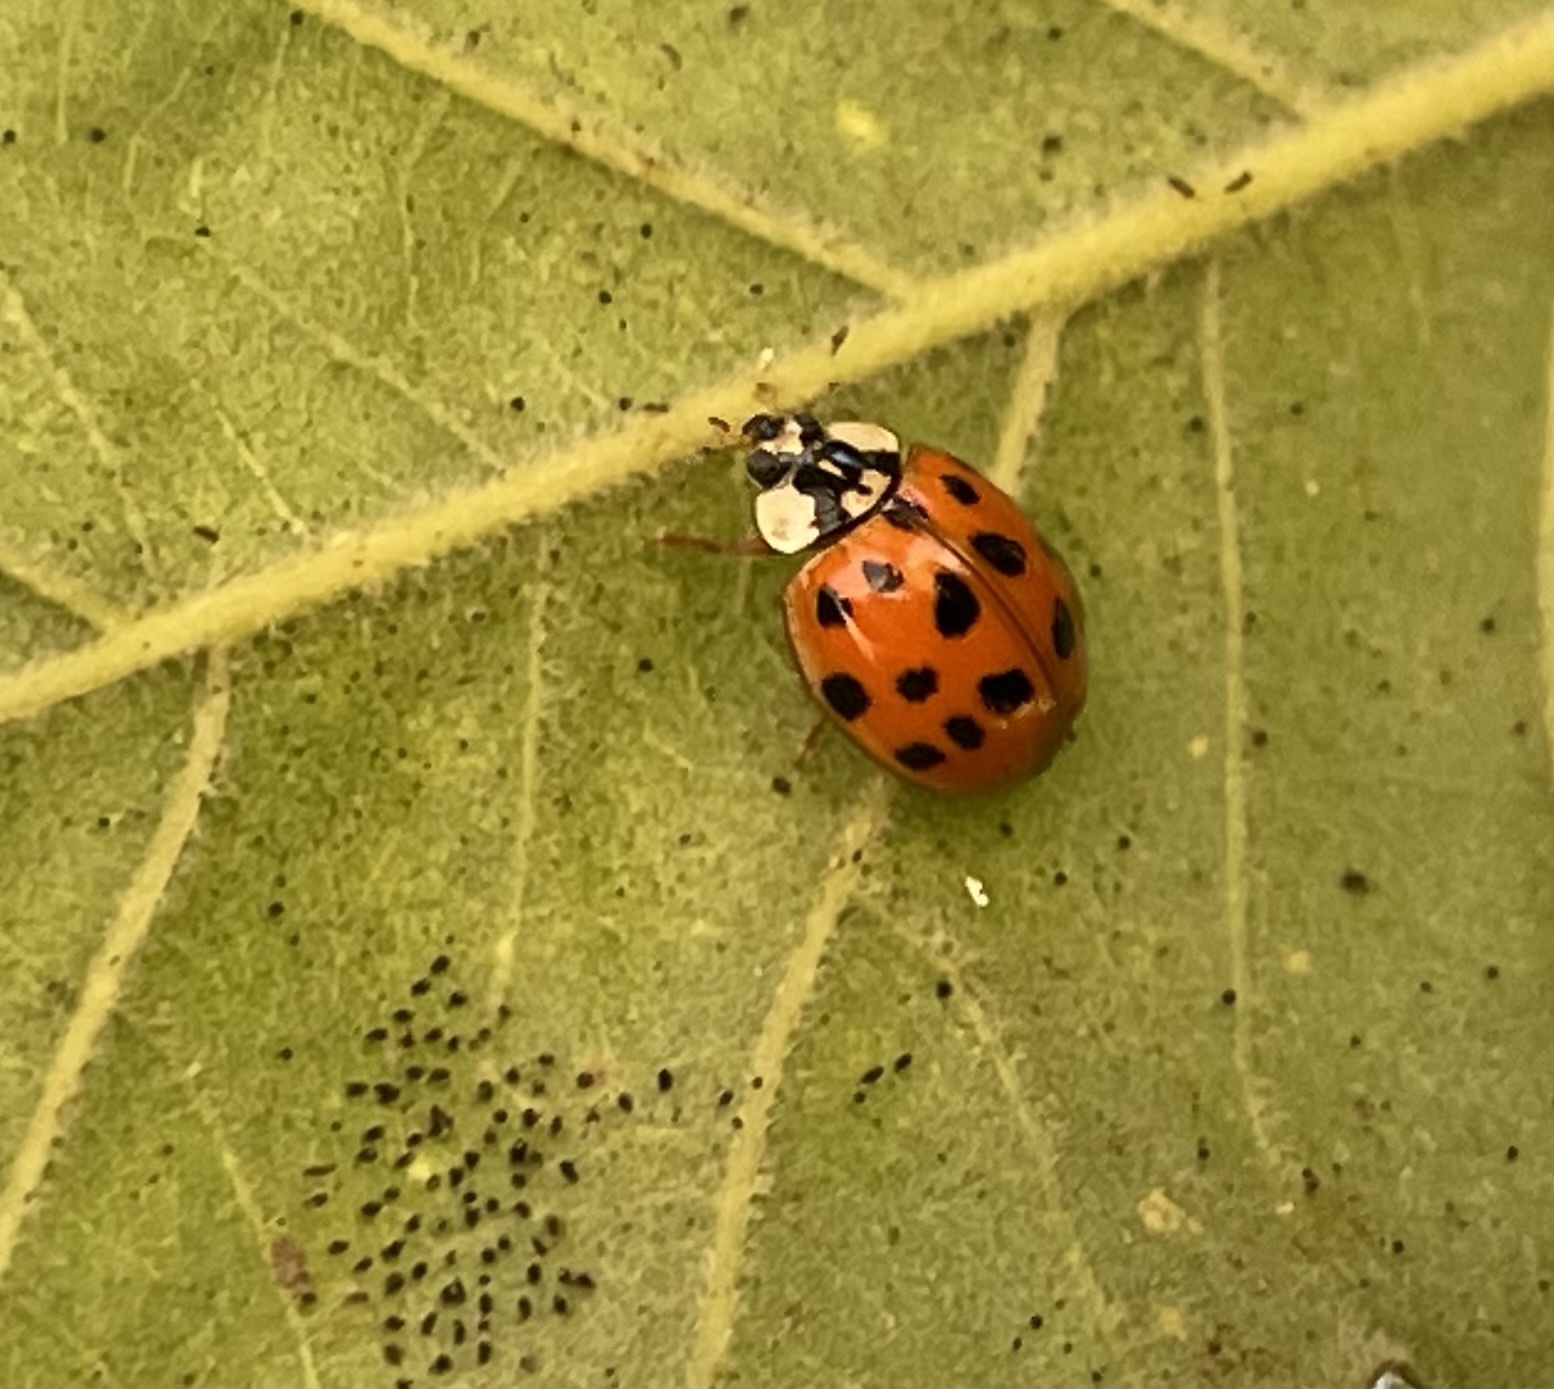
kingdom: Animalia
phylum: Arthropoda
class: Insecta
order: Coleoptera
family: Coccinellidae
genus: Harmonia
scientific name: Harmonia axyridis
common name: Harlequin ladybird
